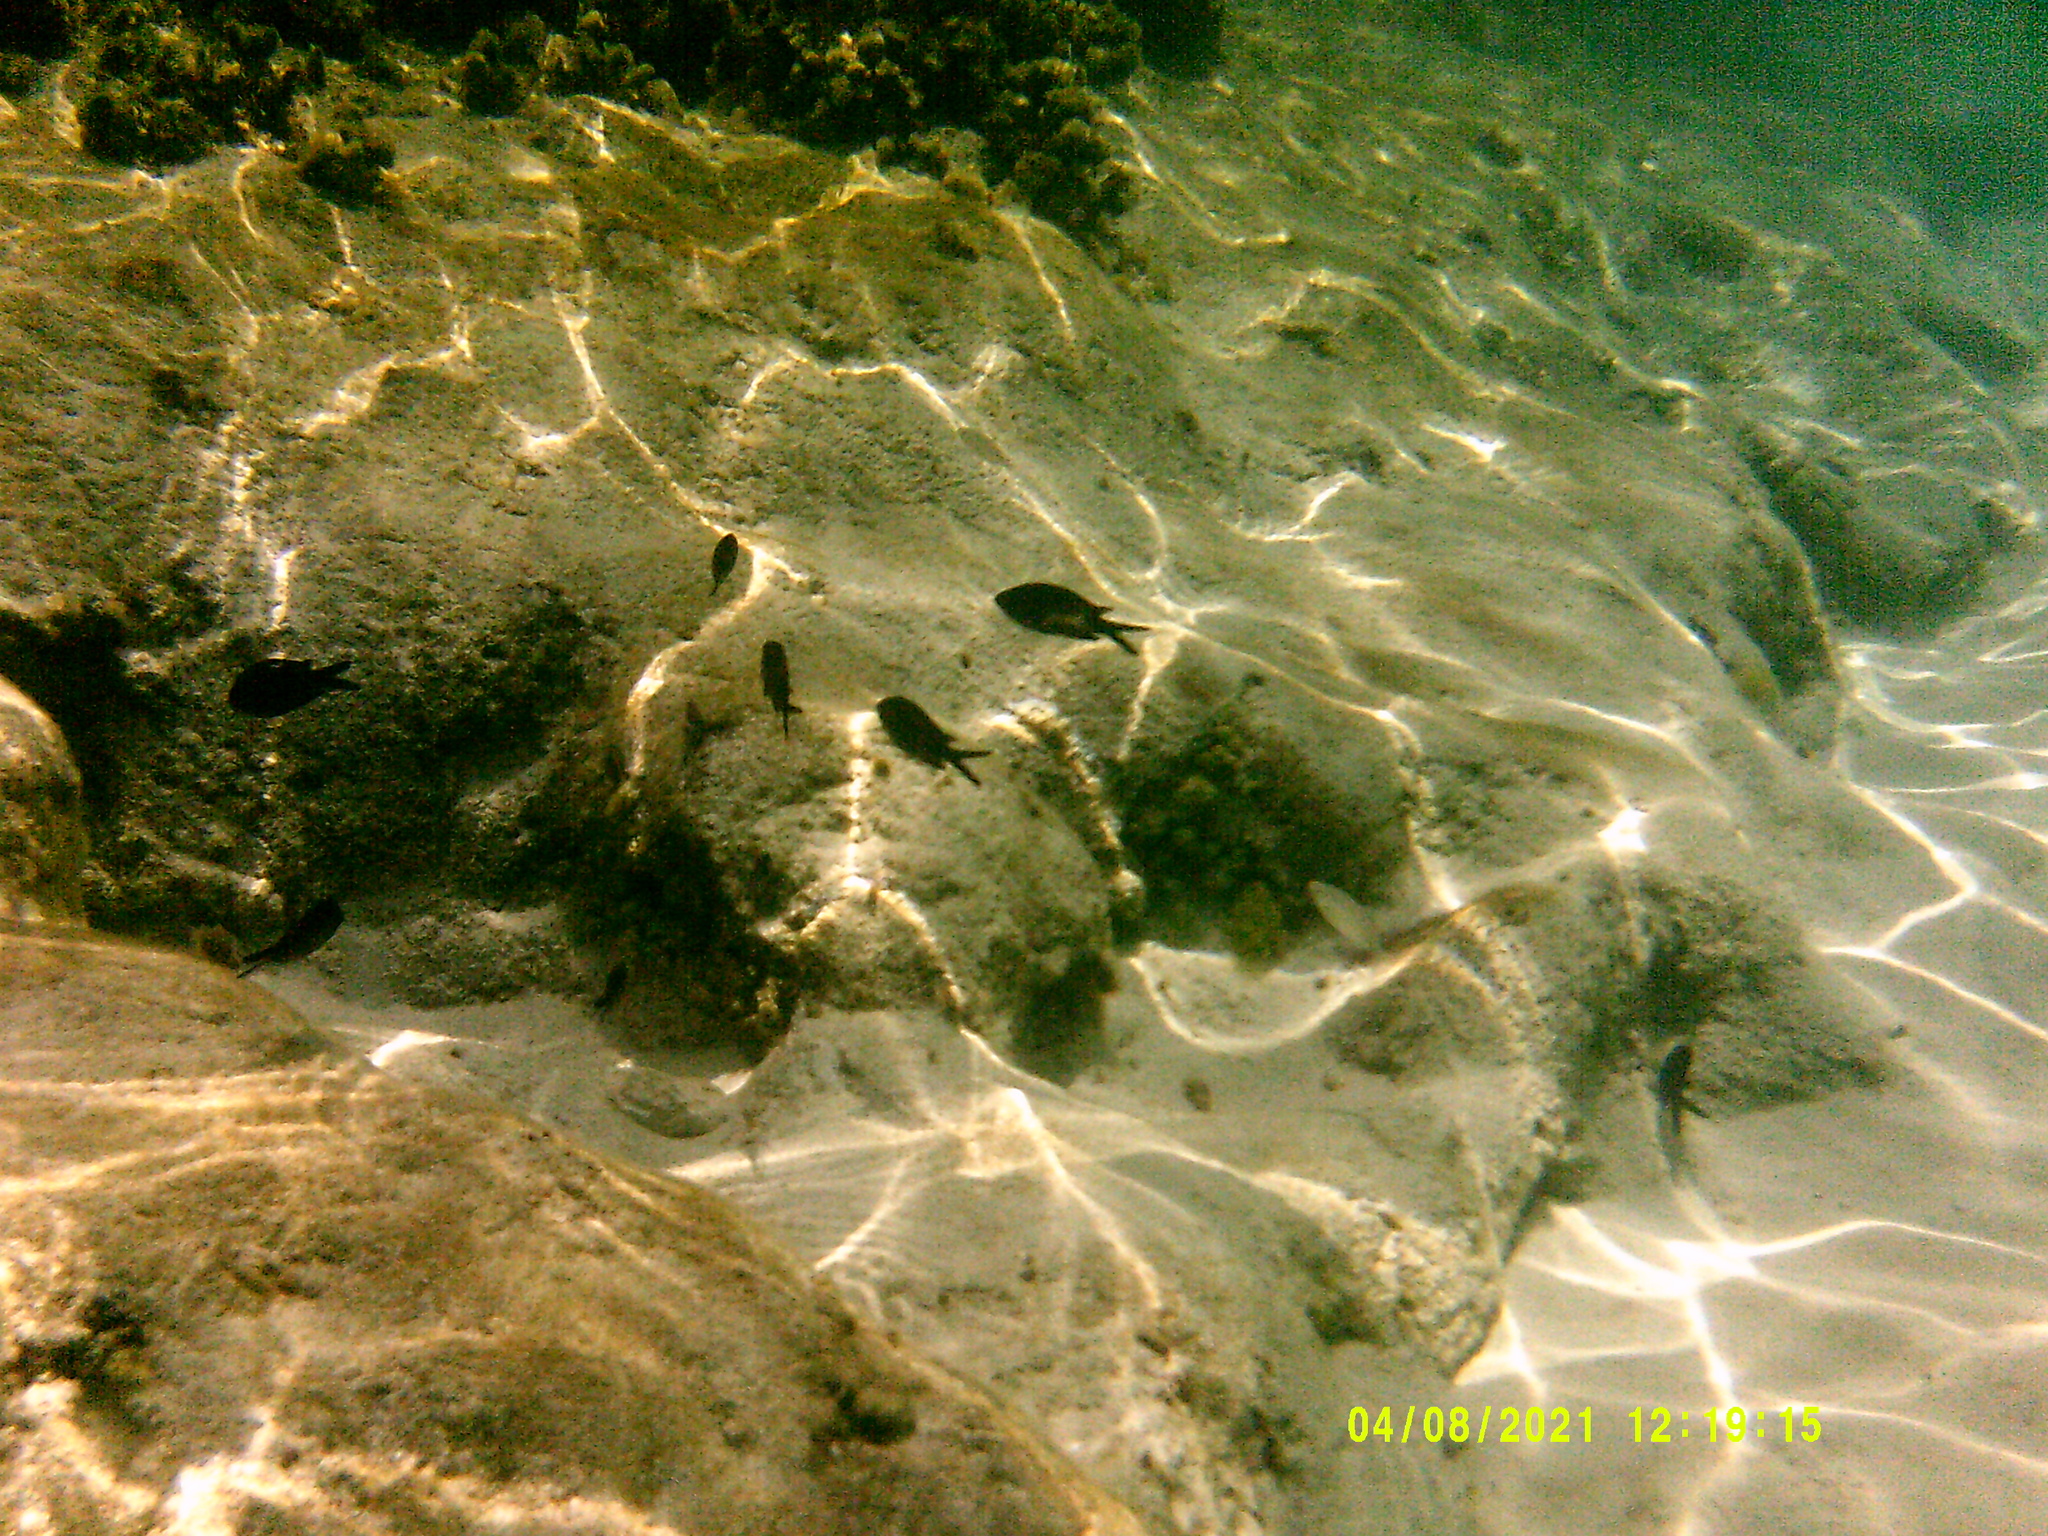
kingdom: Animalia
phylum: Chordata
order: Perciformes
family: Pomacentridae
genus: Chromis
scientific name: Chromis chromis
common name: Damselfish
